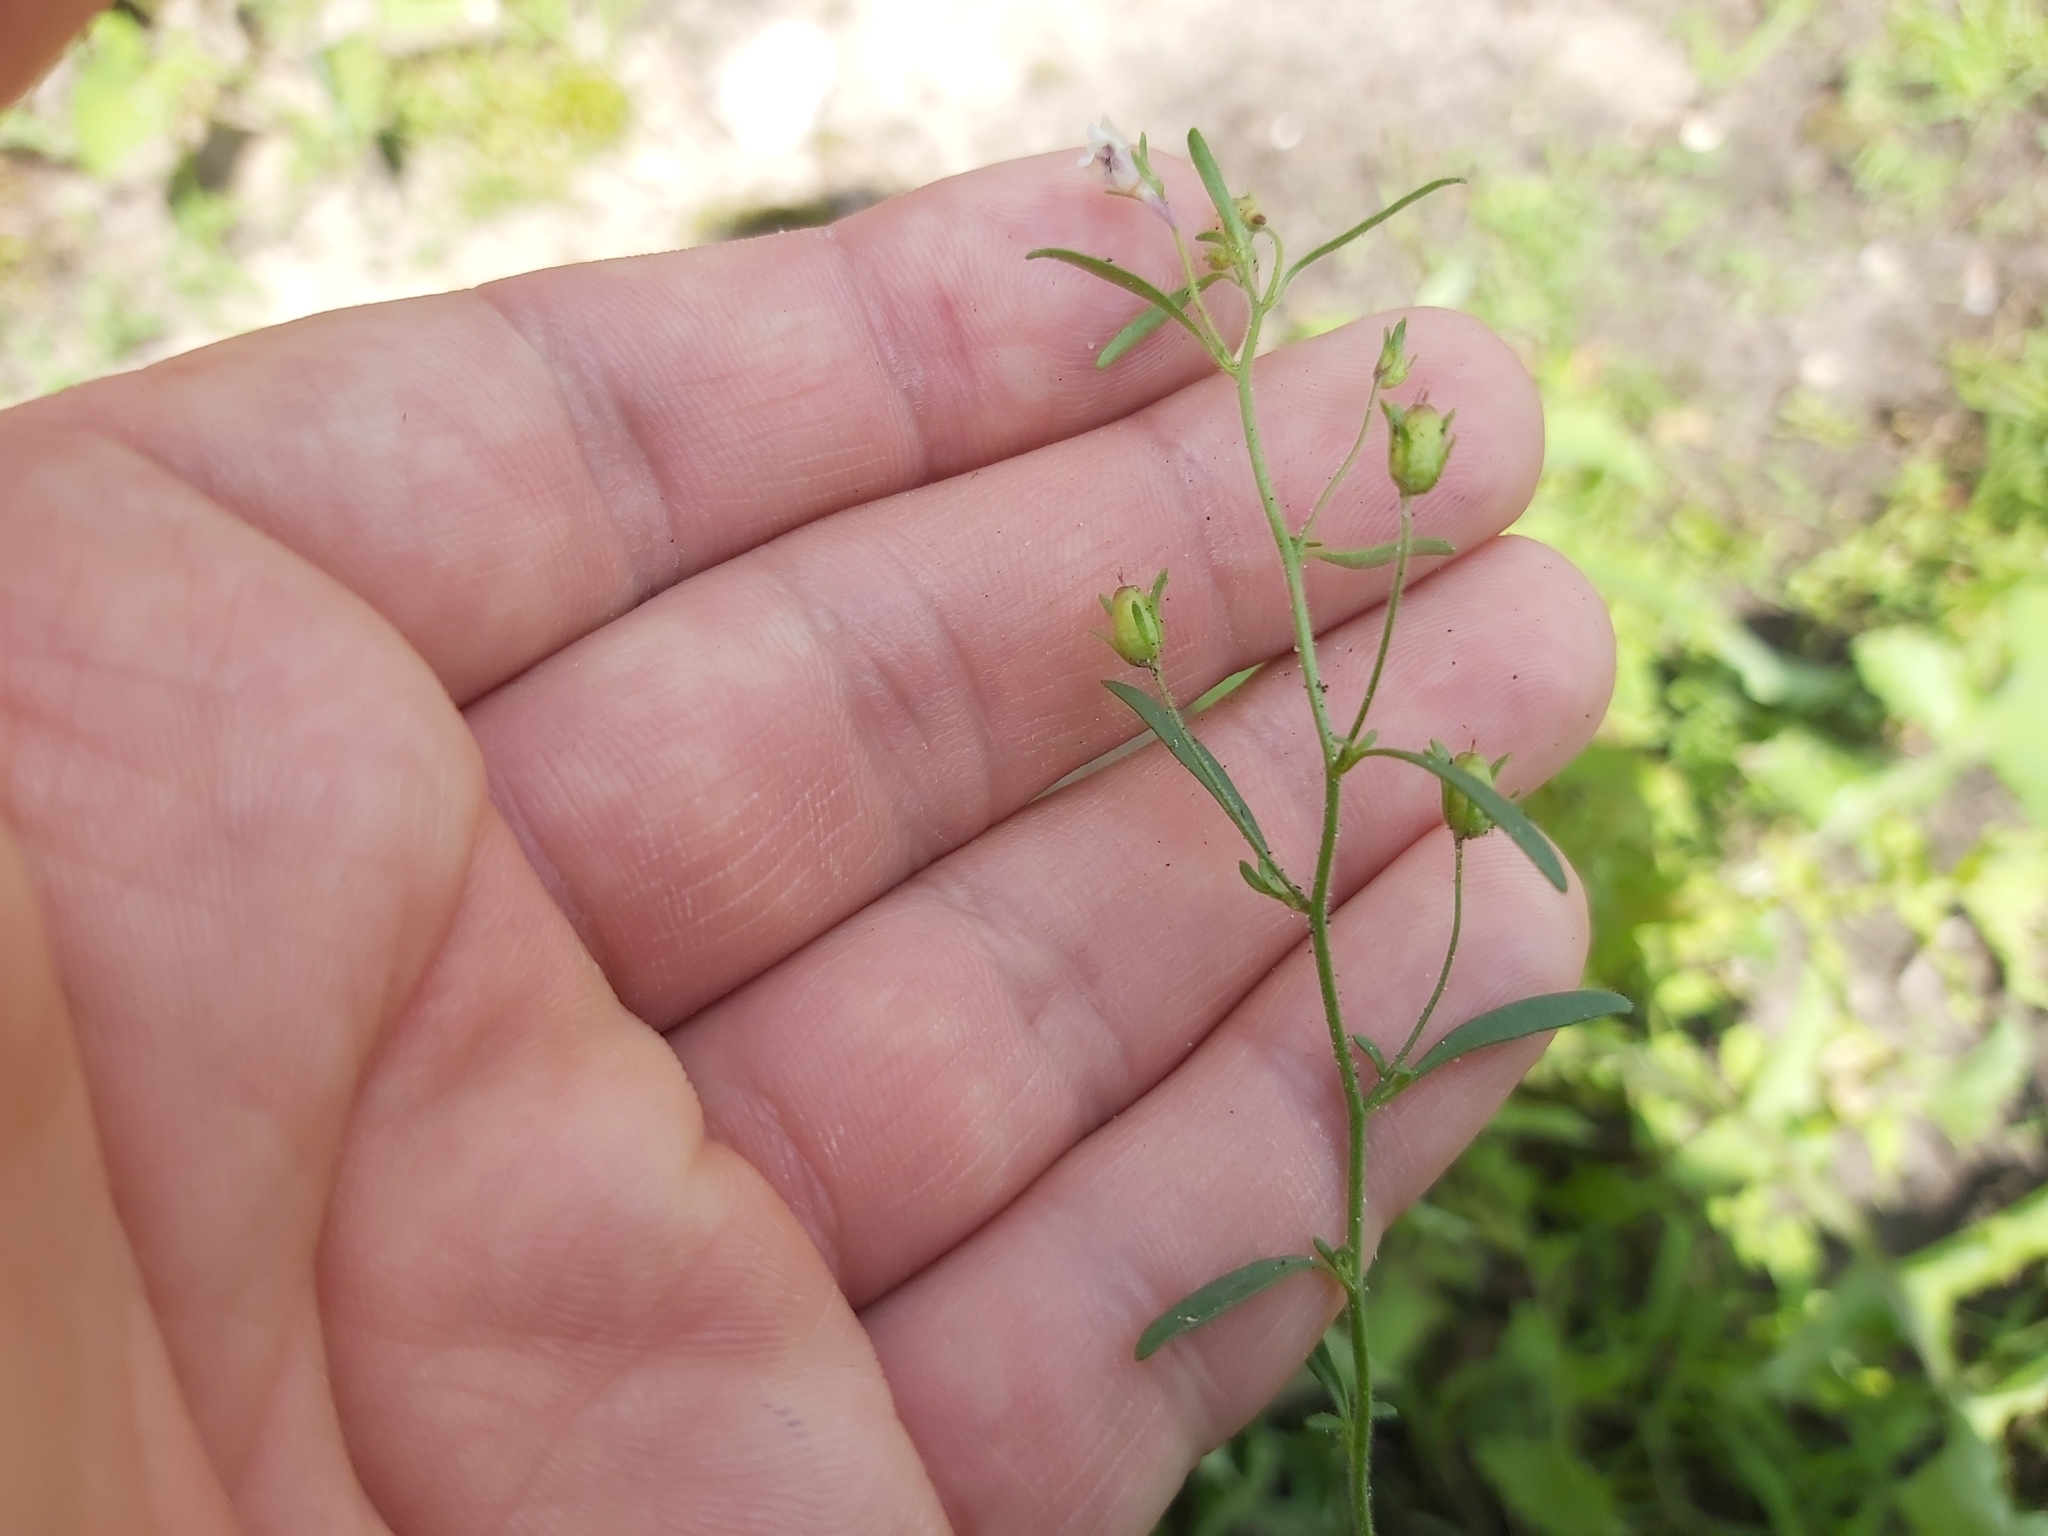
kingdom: Plantae
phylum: Tracheophyta
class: Magnoliopsida
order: Lamiales
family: Plantaginaceae
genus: Chaenorhinum
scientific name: Chaenorhinum minus
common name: Dwarf snapdragon
